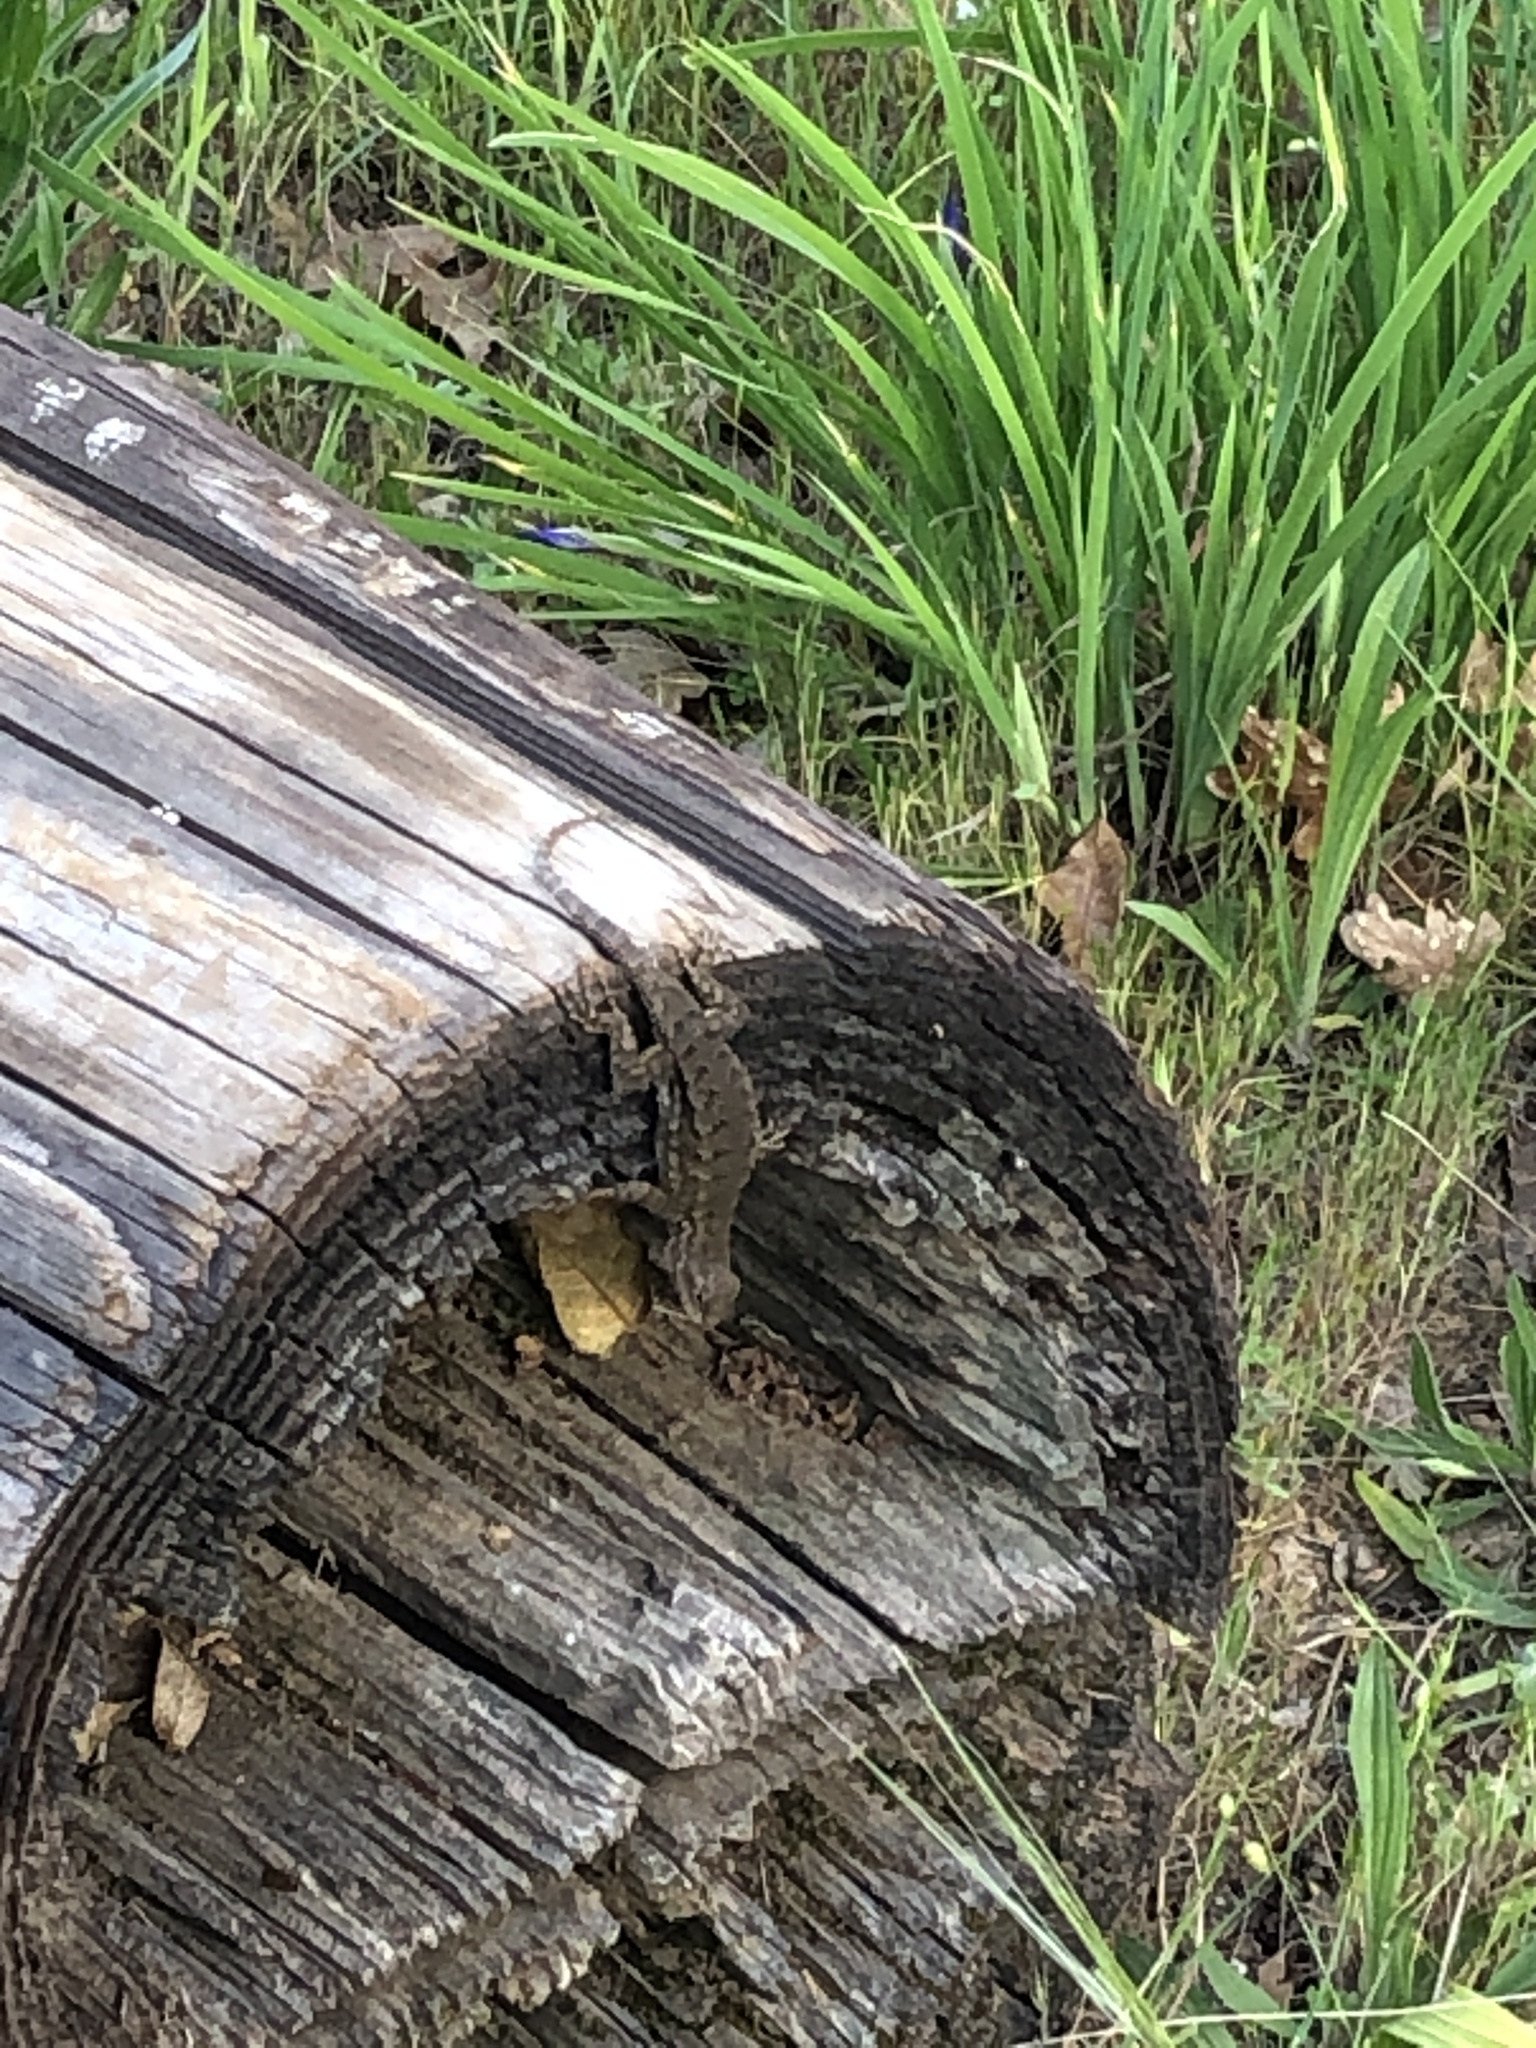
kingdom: Animalia
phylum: Chordata
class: Squamata
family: Phrynosomatidae
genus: Sceloporus
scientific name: Sceloporus occidentalis
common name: Western fence lizard
